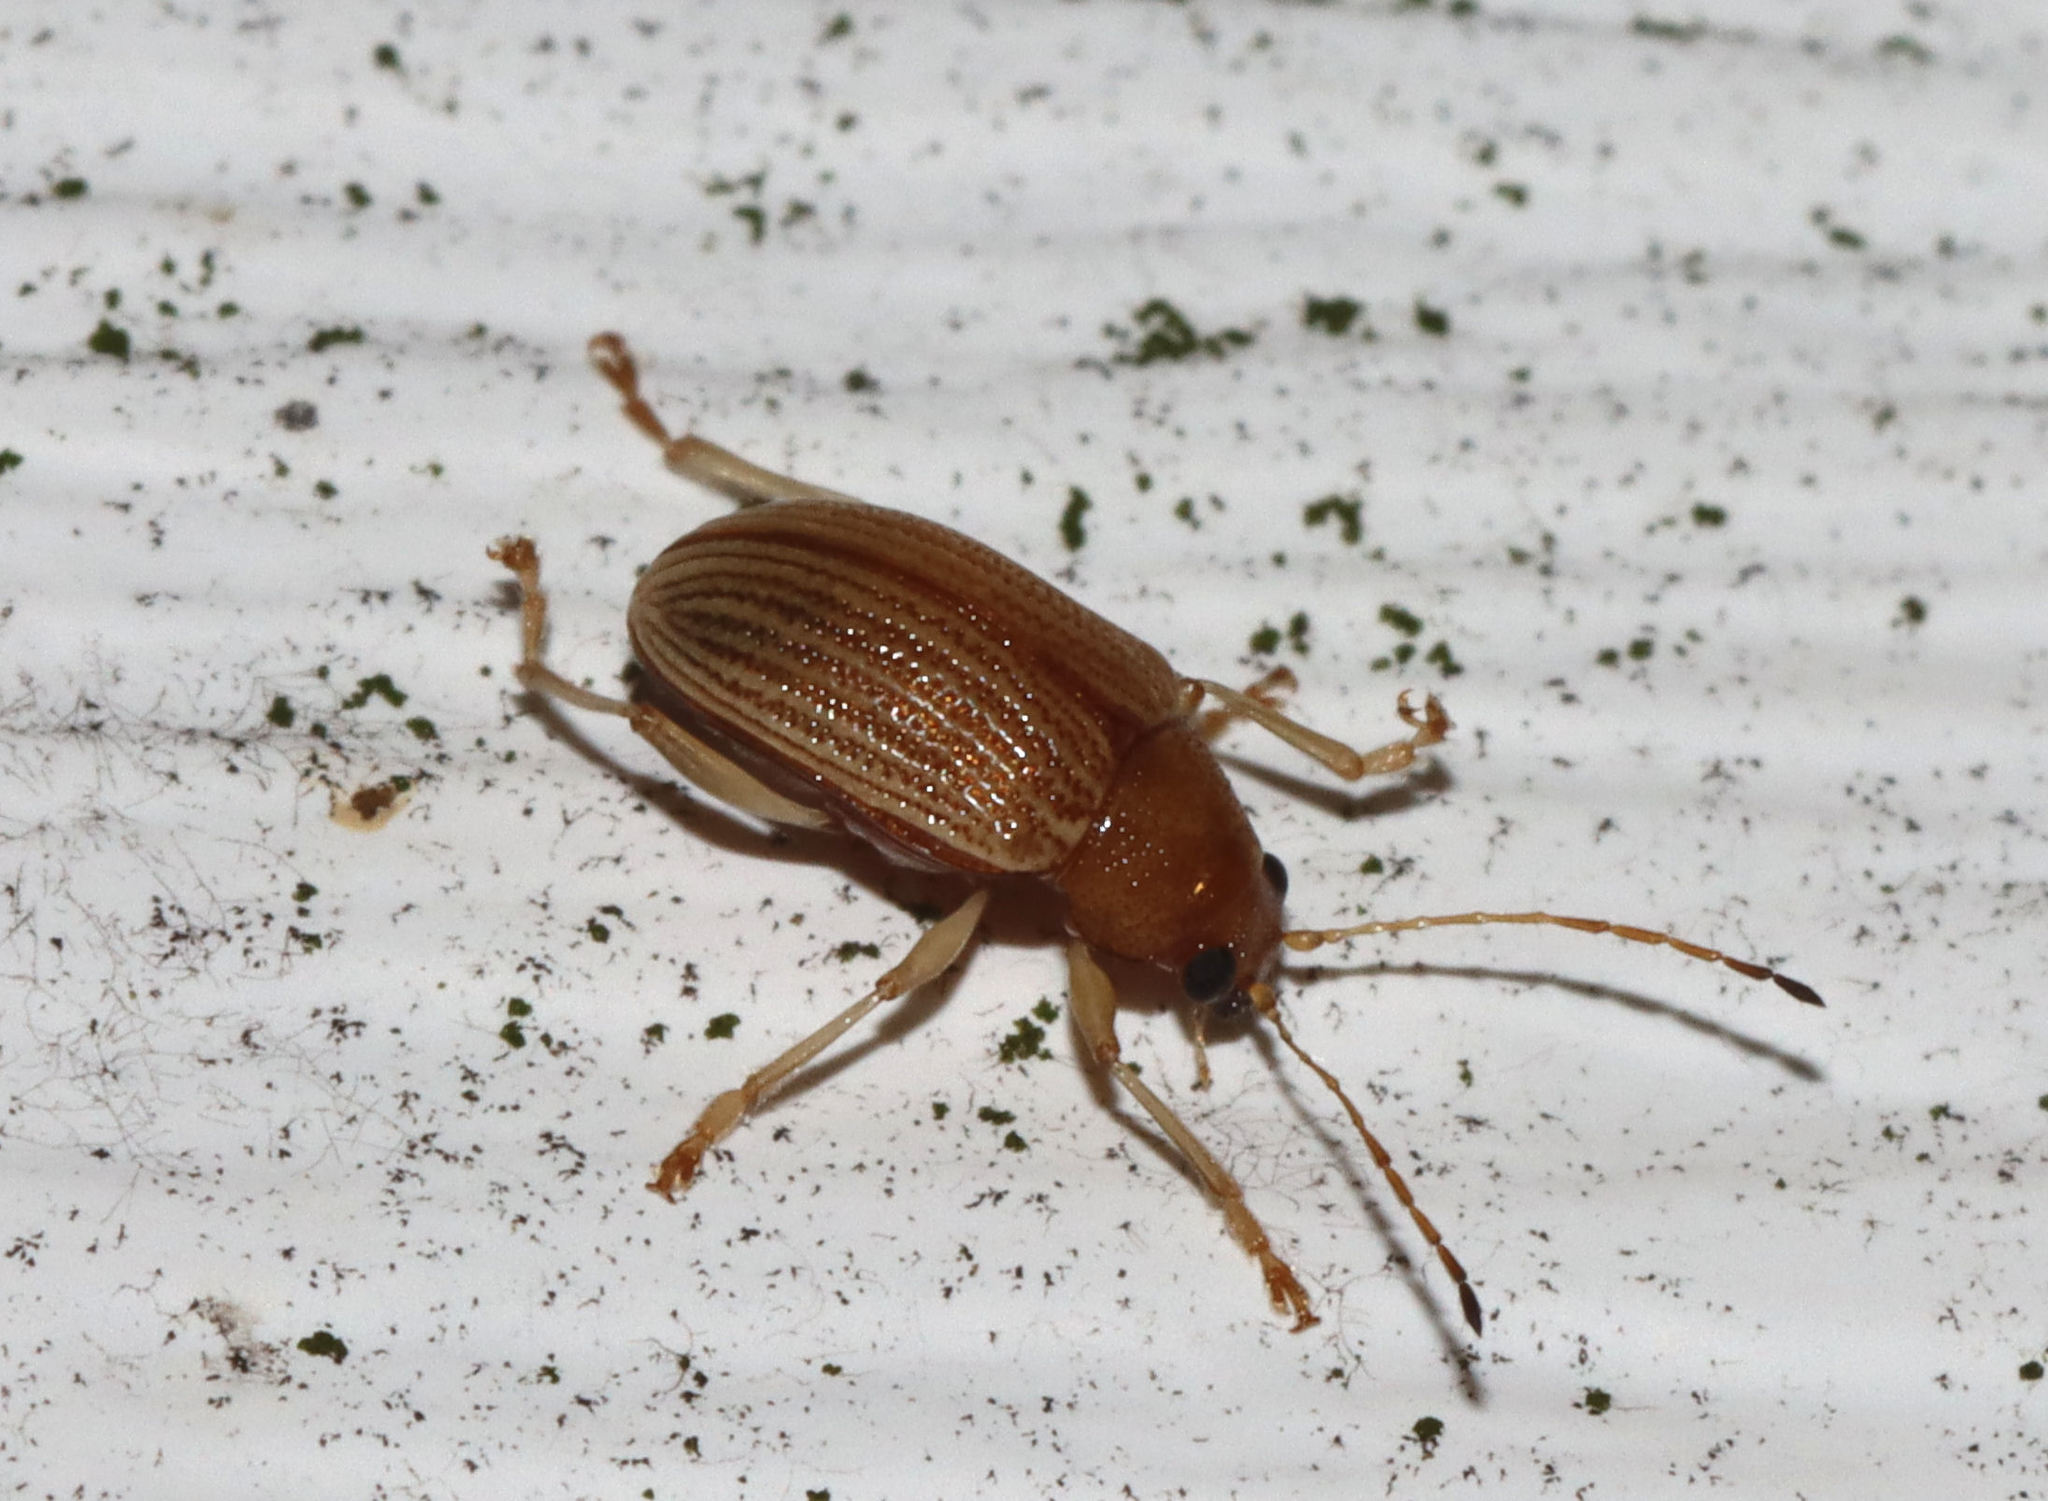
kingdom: Animalia
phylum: Arthropoda
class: Insecta
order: Coleoptera
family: Chrysomelidae
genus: Colaspis
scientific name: Colaspis brunnea
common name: Grape colaspis
